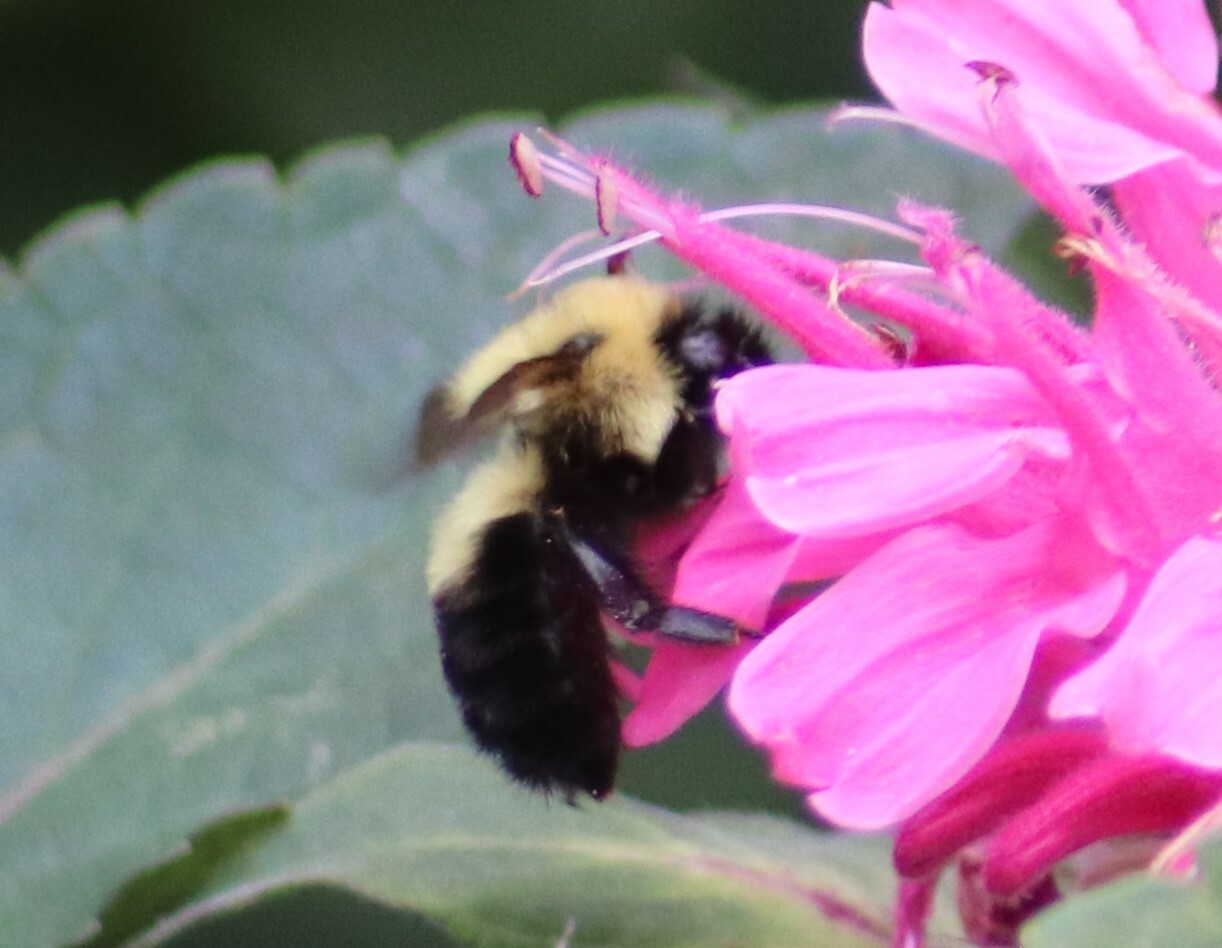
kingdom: Animalia
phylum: Arthropoda
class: Insecta
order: Hymenoptera
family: Apidae
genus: Bombus
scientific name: Bombus bimaculatus
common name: Two-spotted bumble bee
